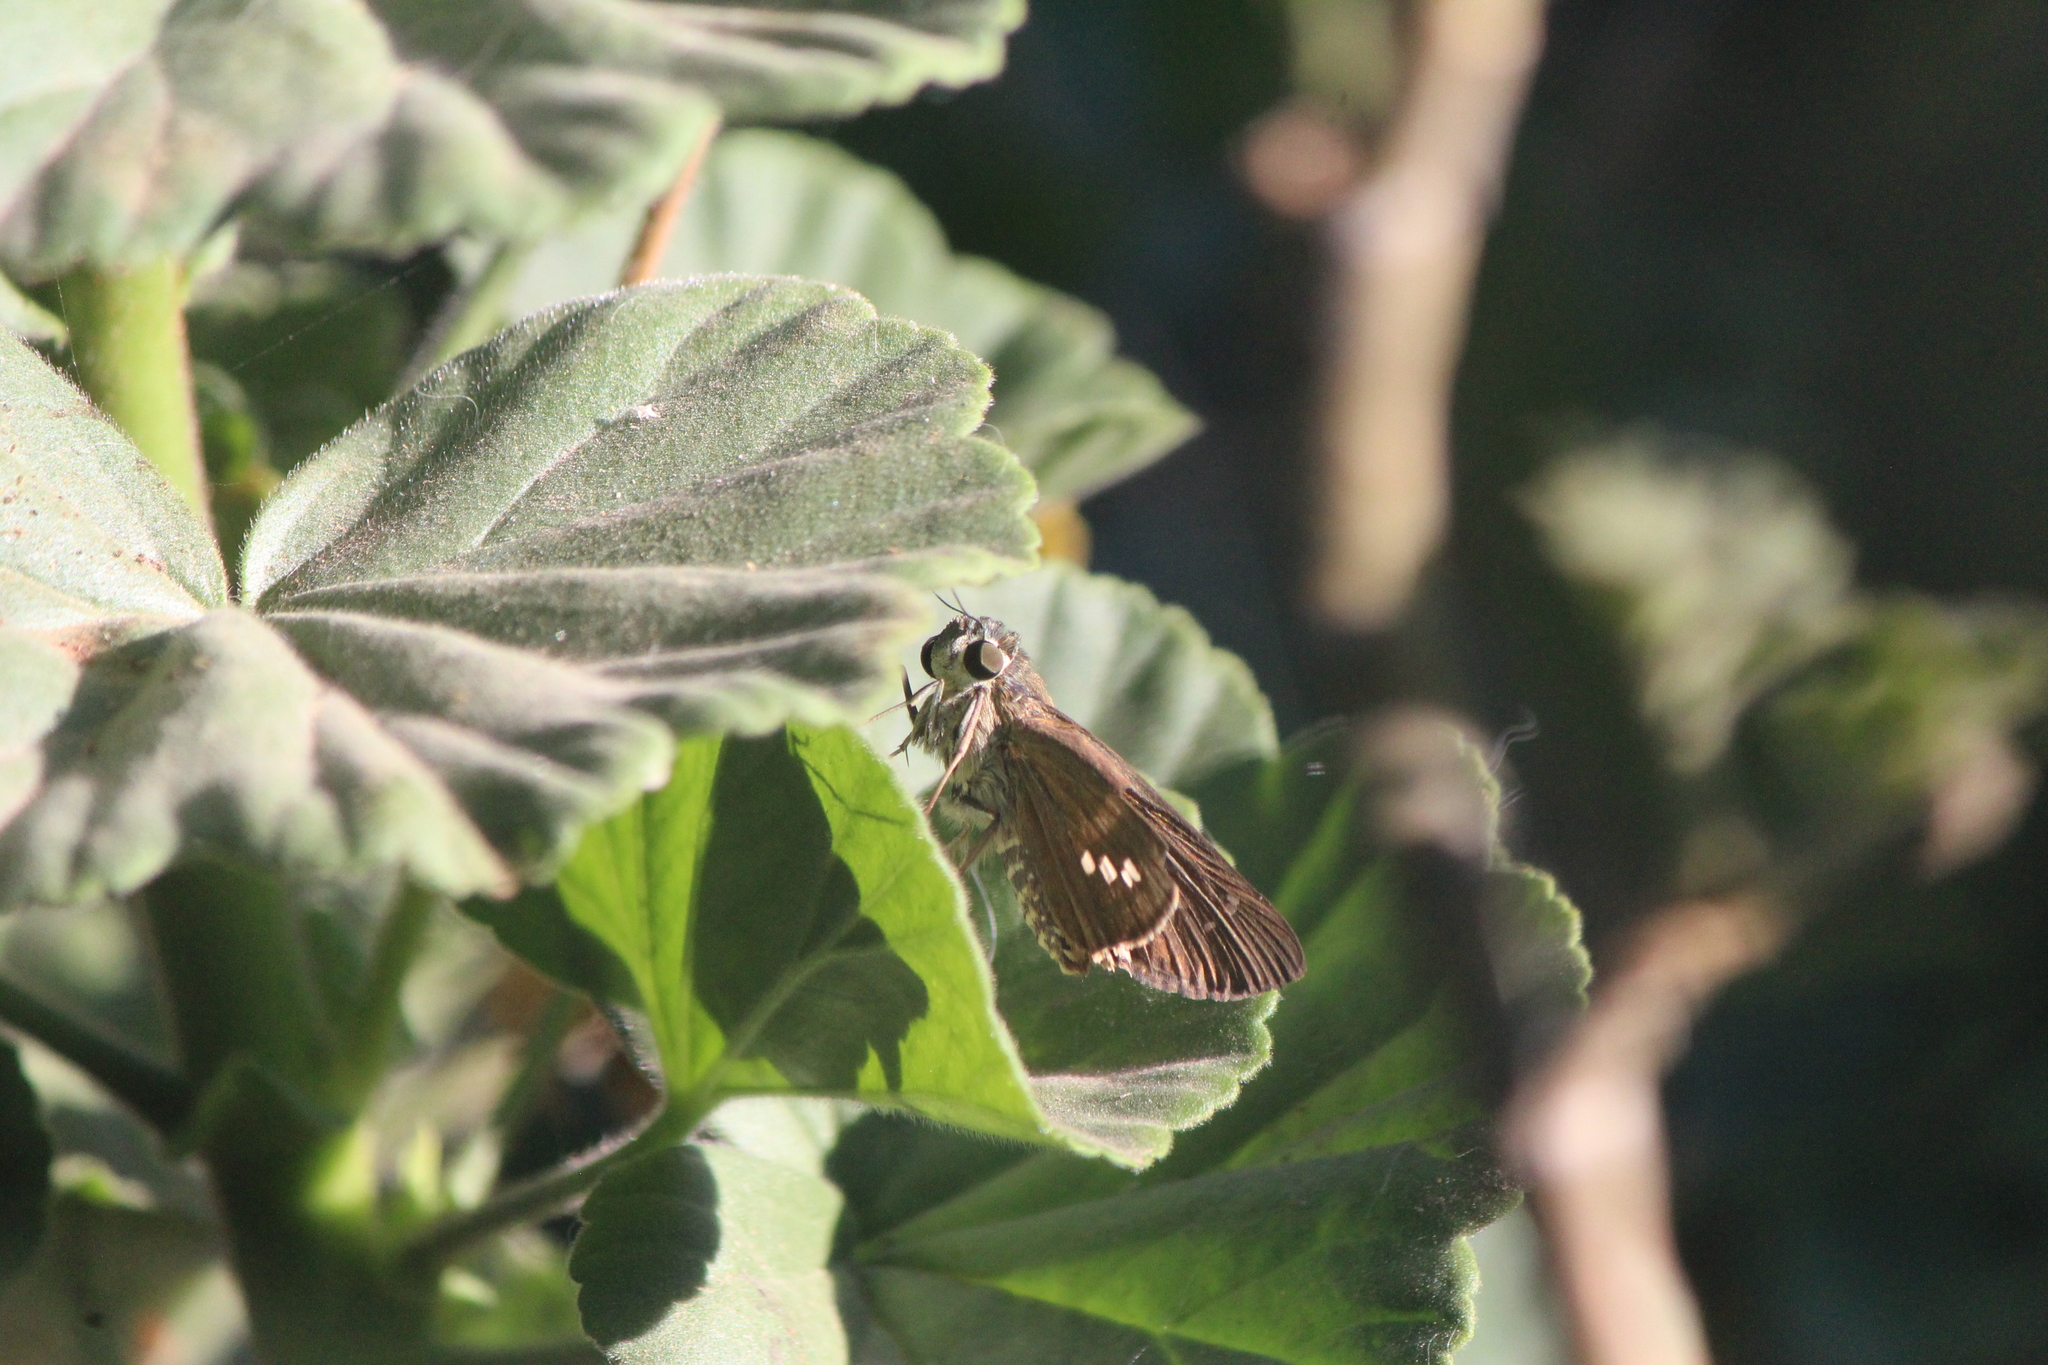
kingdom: Animalia
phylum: Arthropoda
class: Insecta
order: Lepidoptera
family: Hesperiidae
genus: Calpodes
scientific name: Calpodes ethlius
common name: Brazilian skipper
